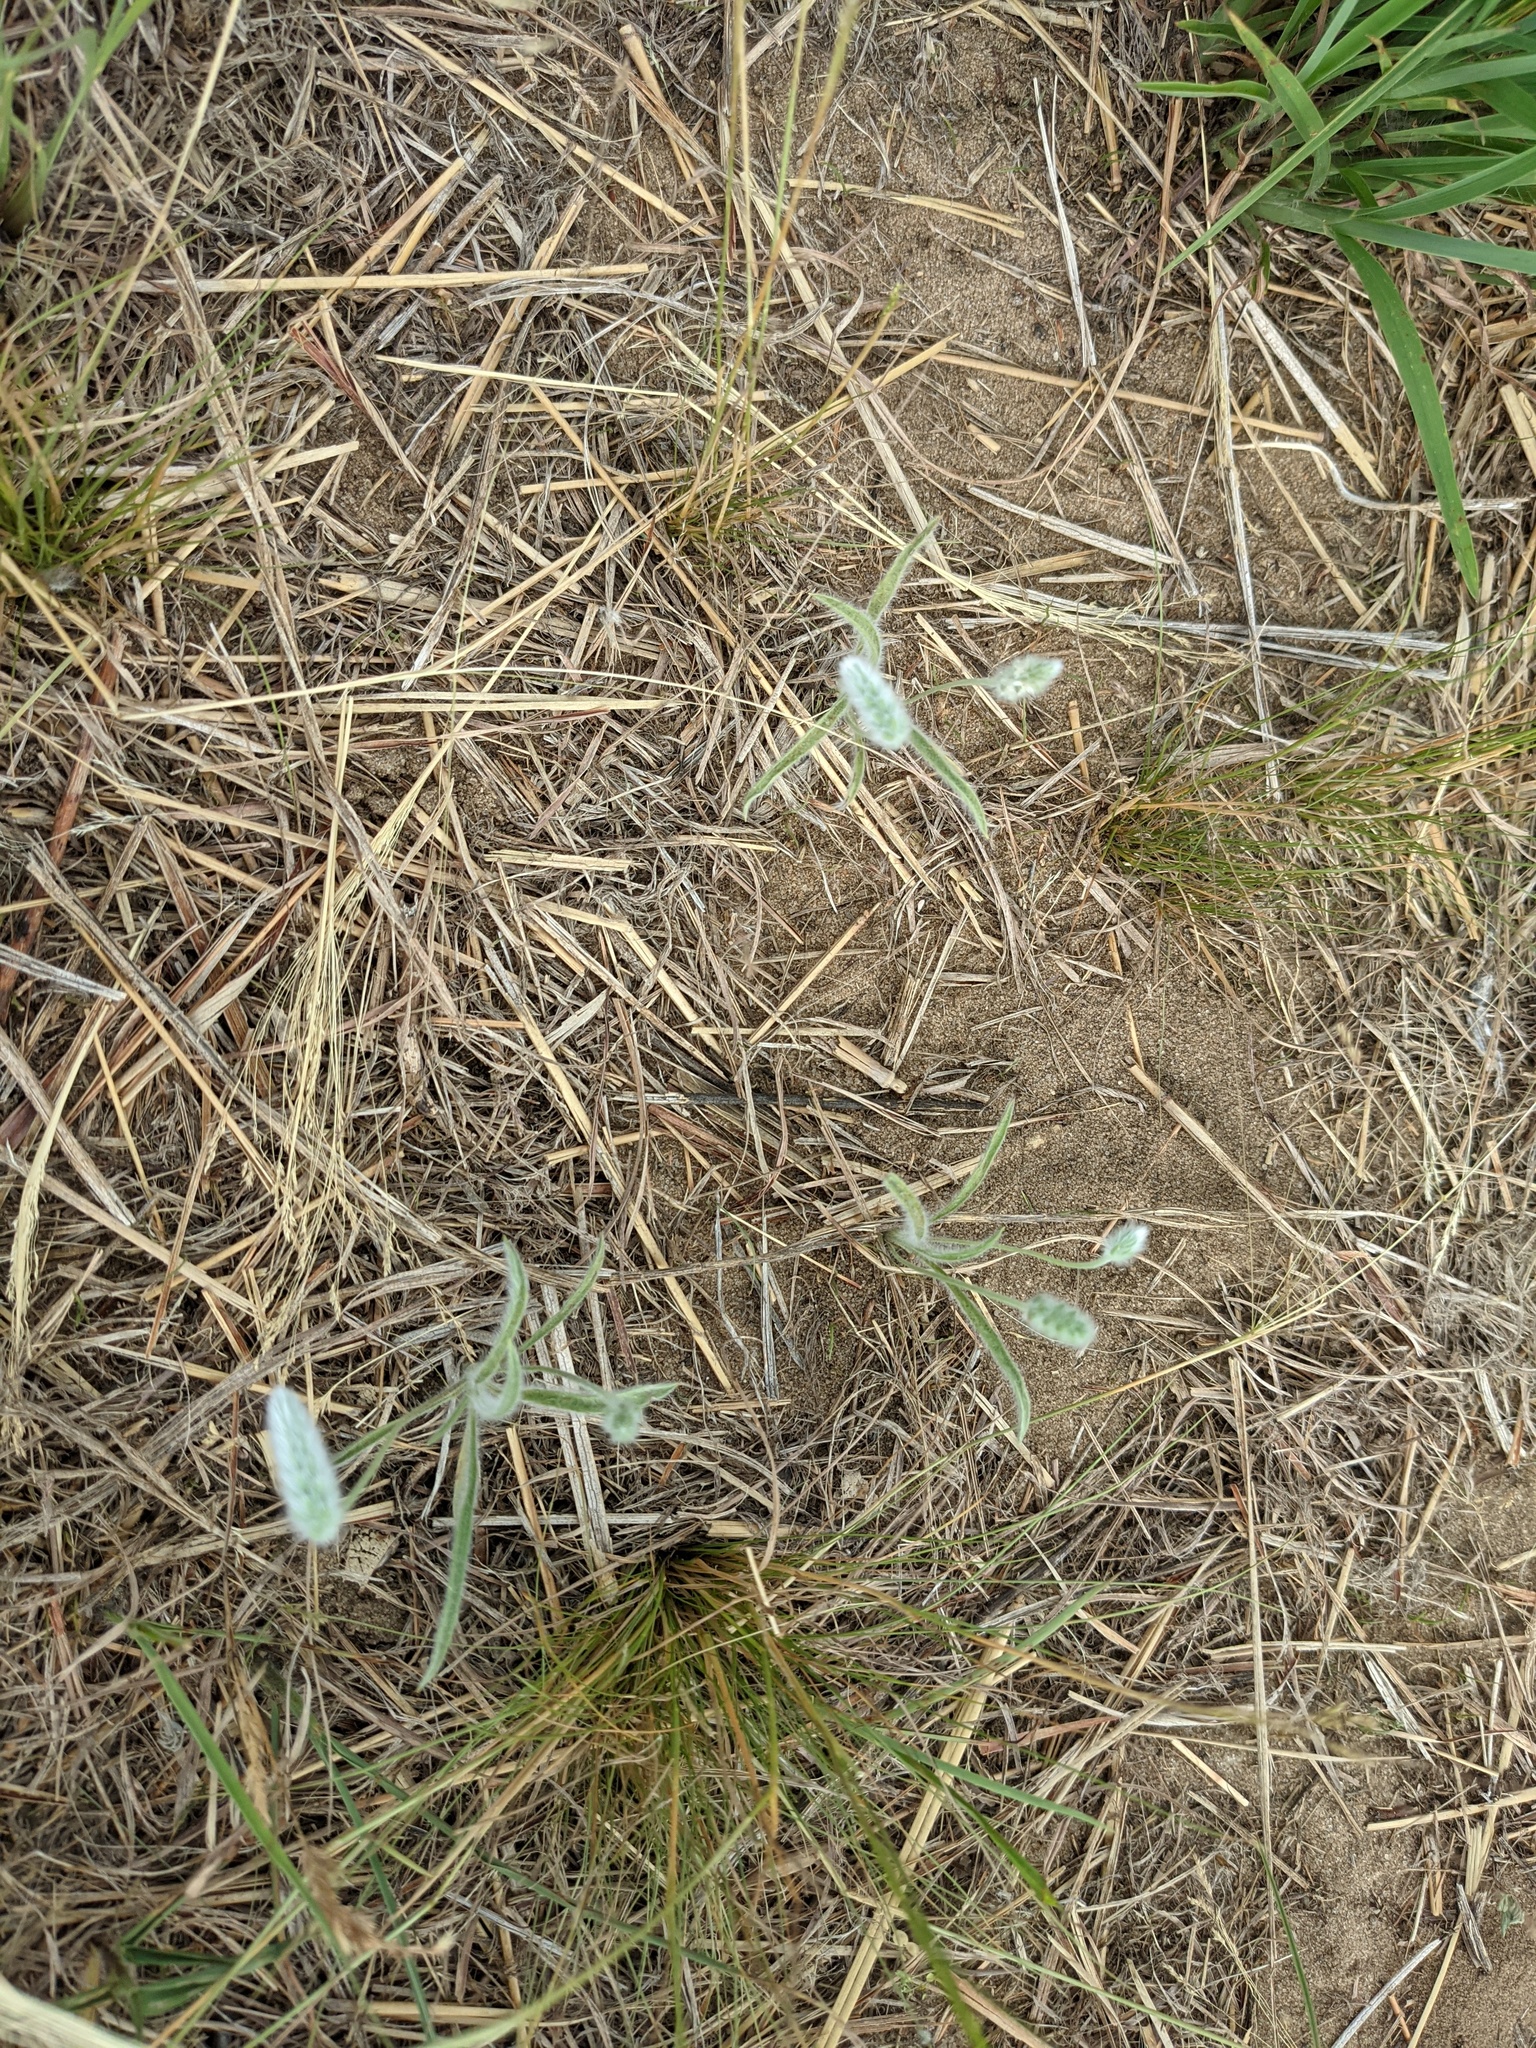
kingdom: Plantae
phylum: Tracheophyta
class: Magnoliopsida
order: Lamiales
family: Plantaginaceae
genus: Plantago
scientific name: Plantago patagonica
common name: Patagonia indian-wheat
